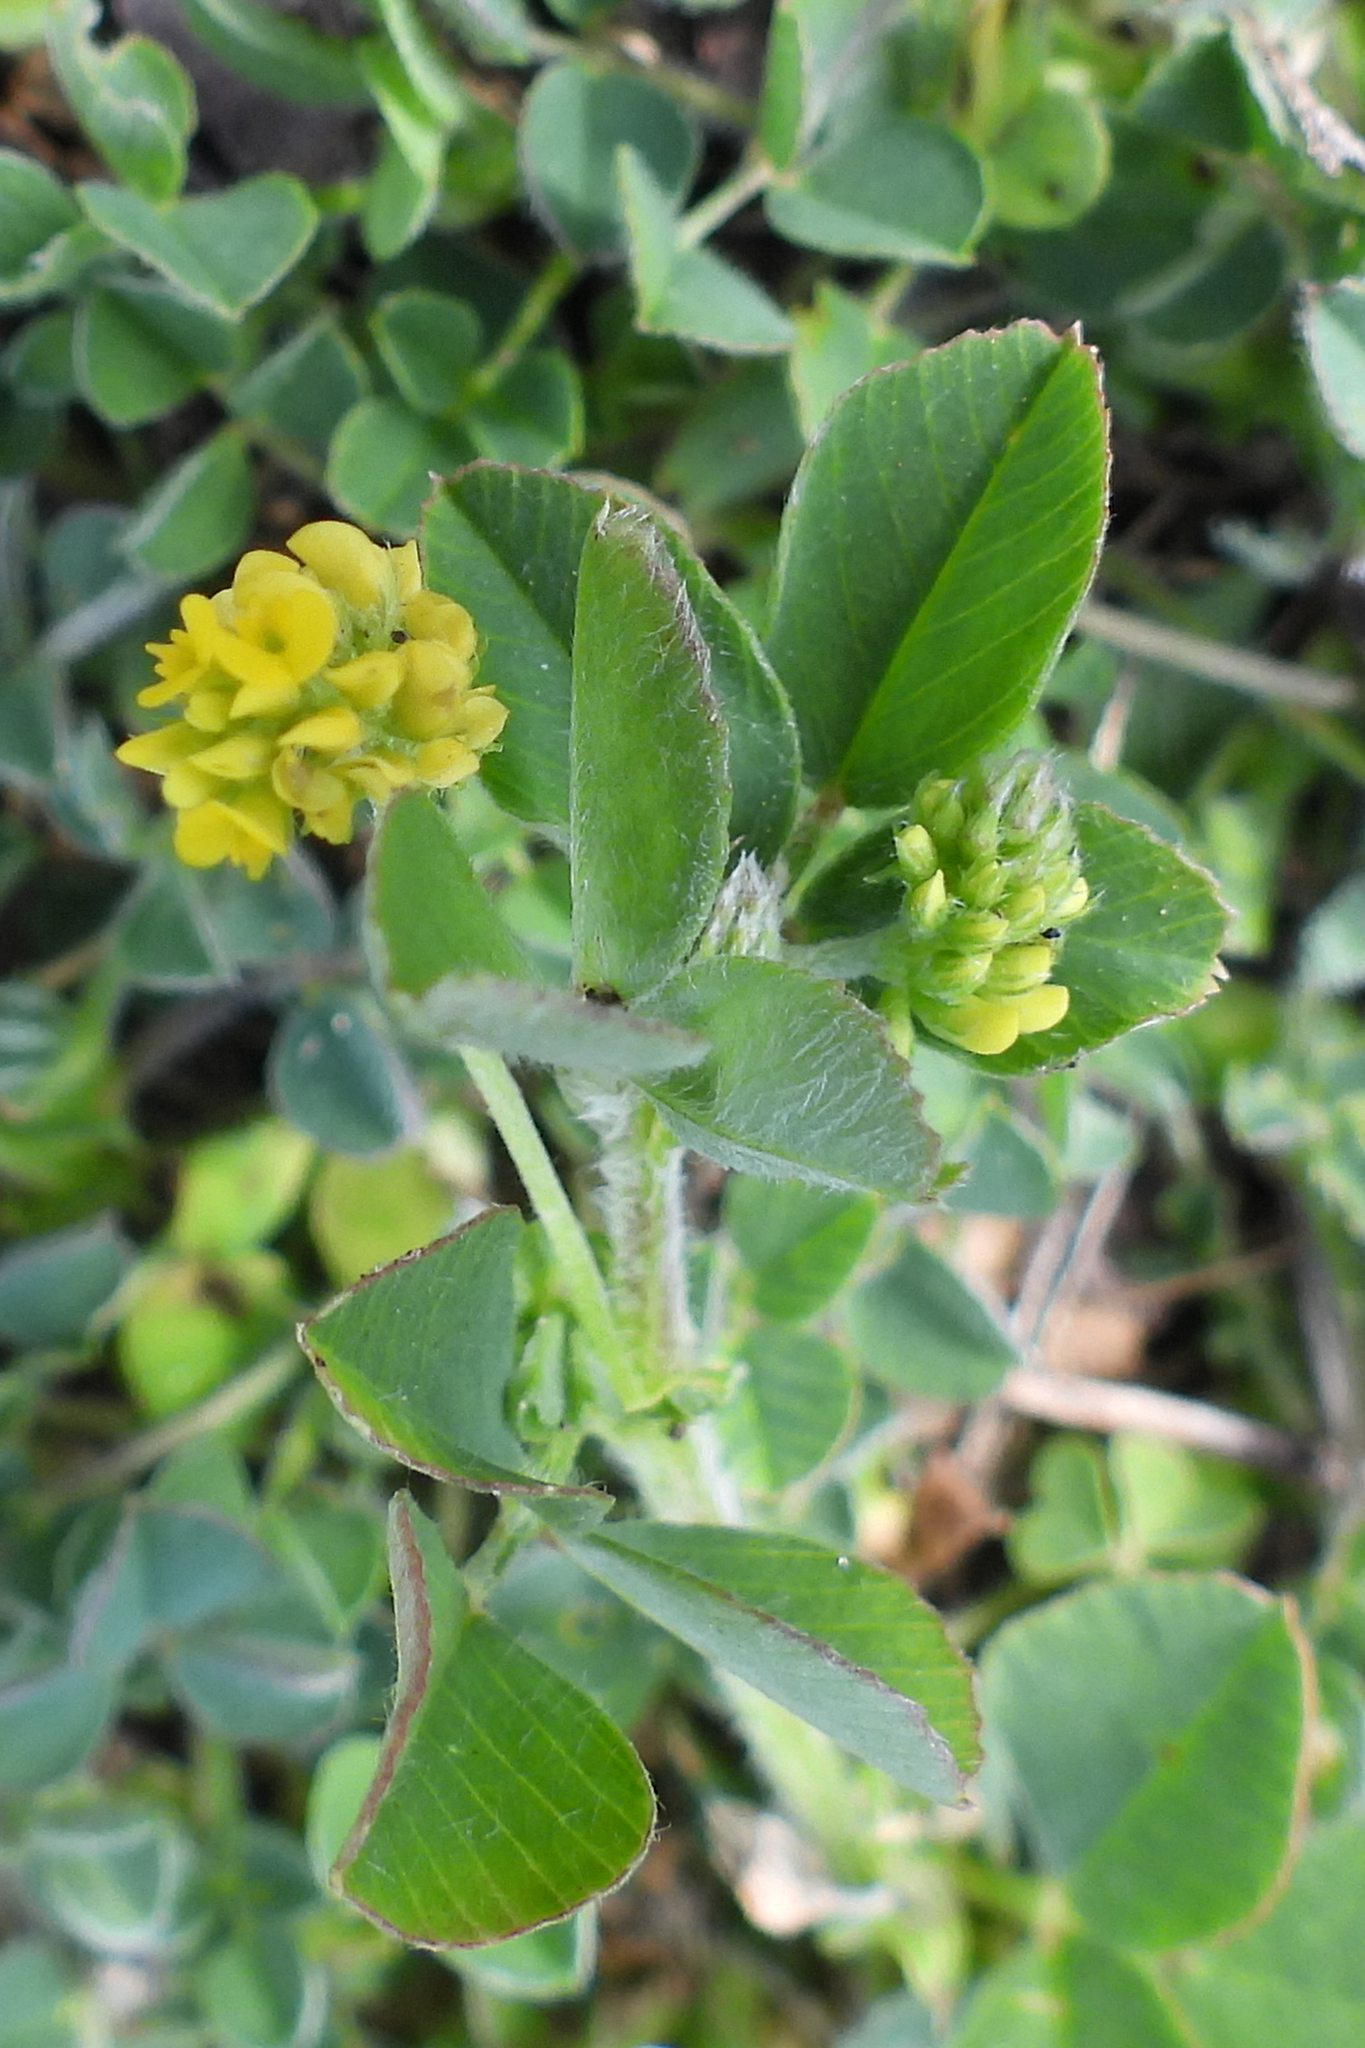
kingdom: Plantae
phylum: Tracheophyta
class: Magnoliopsida
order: Fabales
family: Fabaceae
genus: Medicago
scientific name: Medicago lupulina
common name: Black medick
